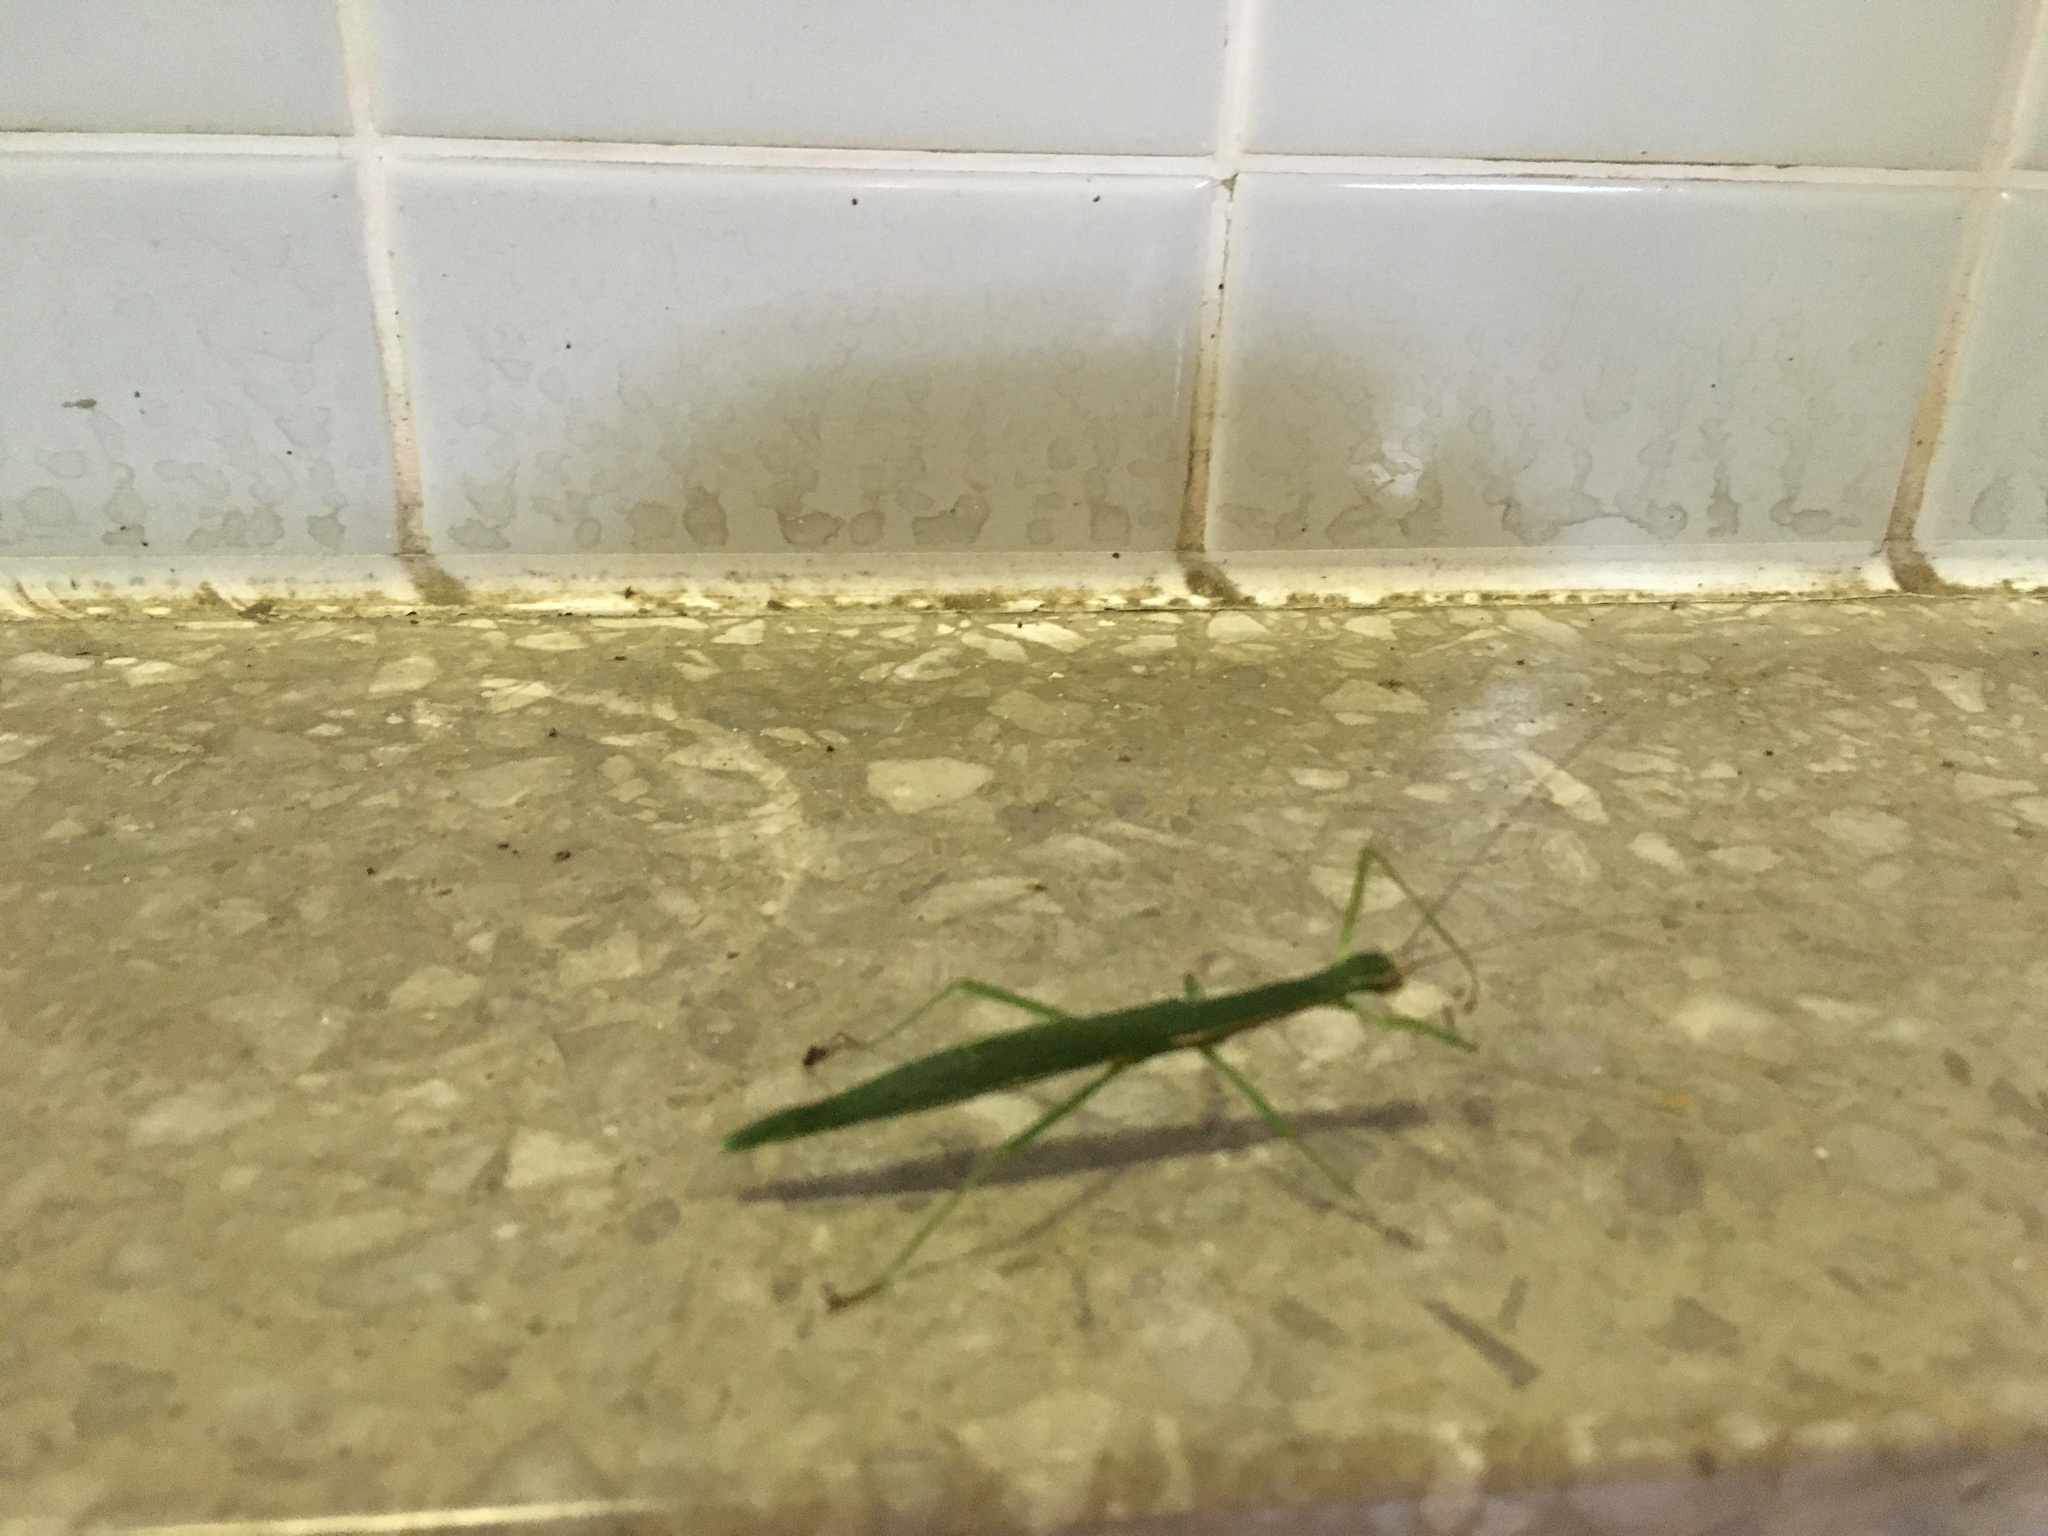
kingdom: Animalia
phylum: Arthropoda
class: Insecta
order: Phasmida
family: Lonchodidae
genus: Micadina
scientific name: Micadina phluctainoides
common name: Japanese winged stick-insect
